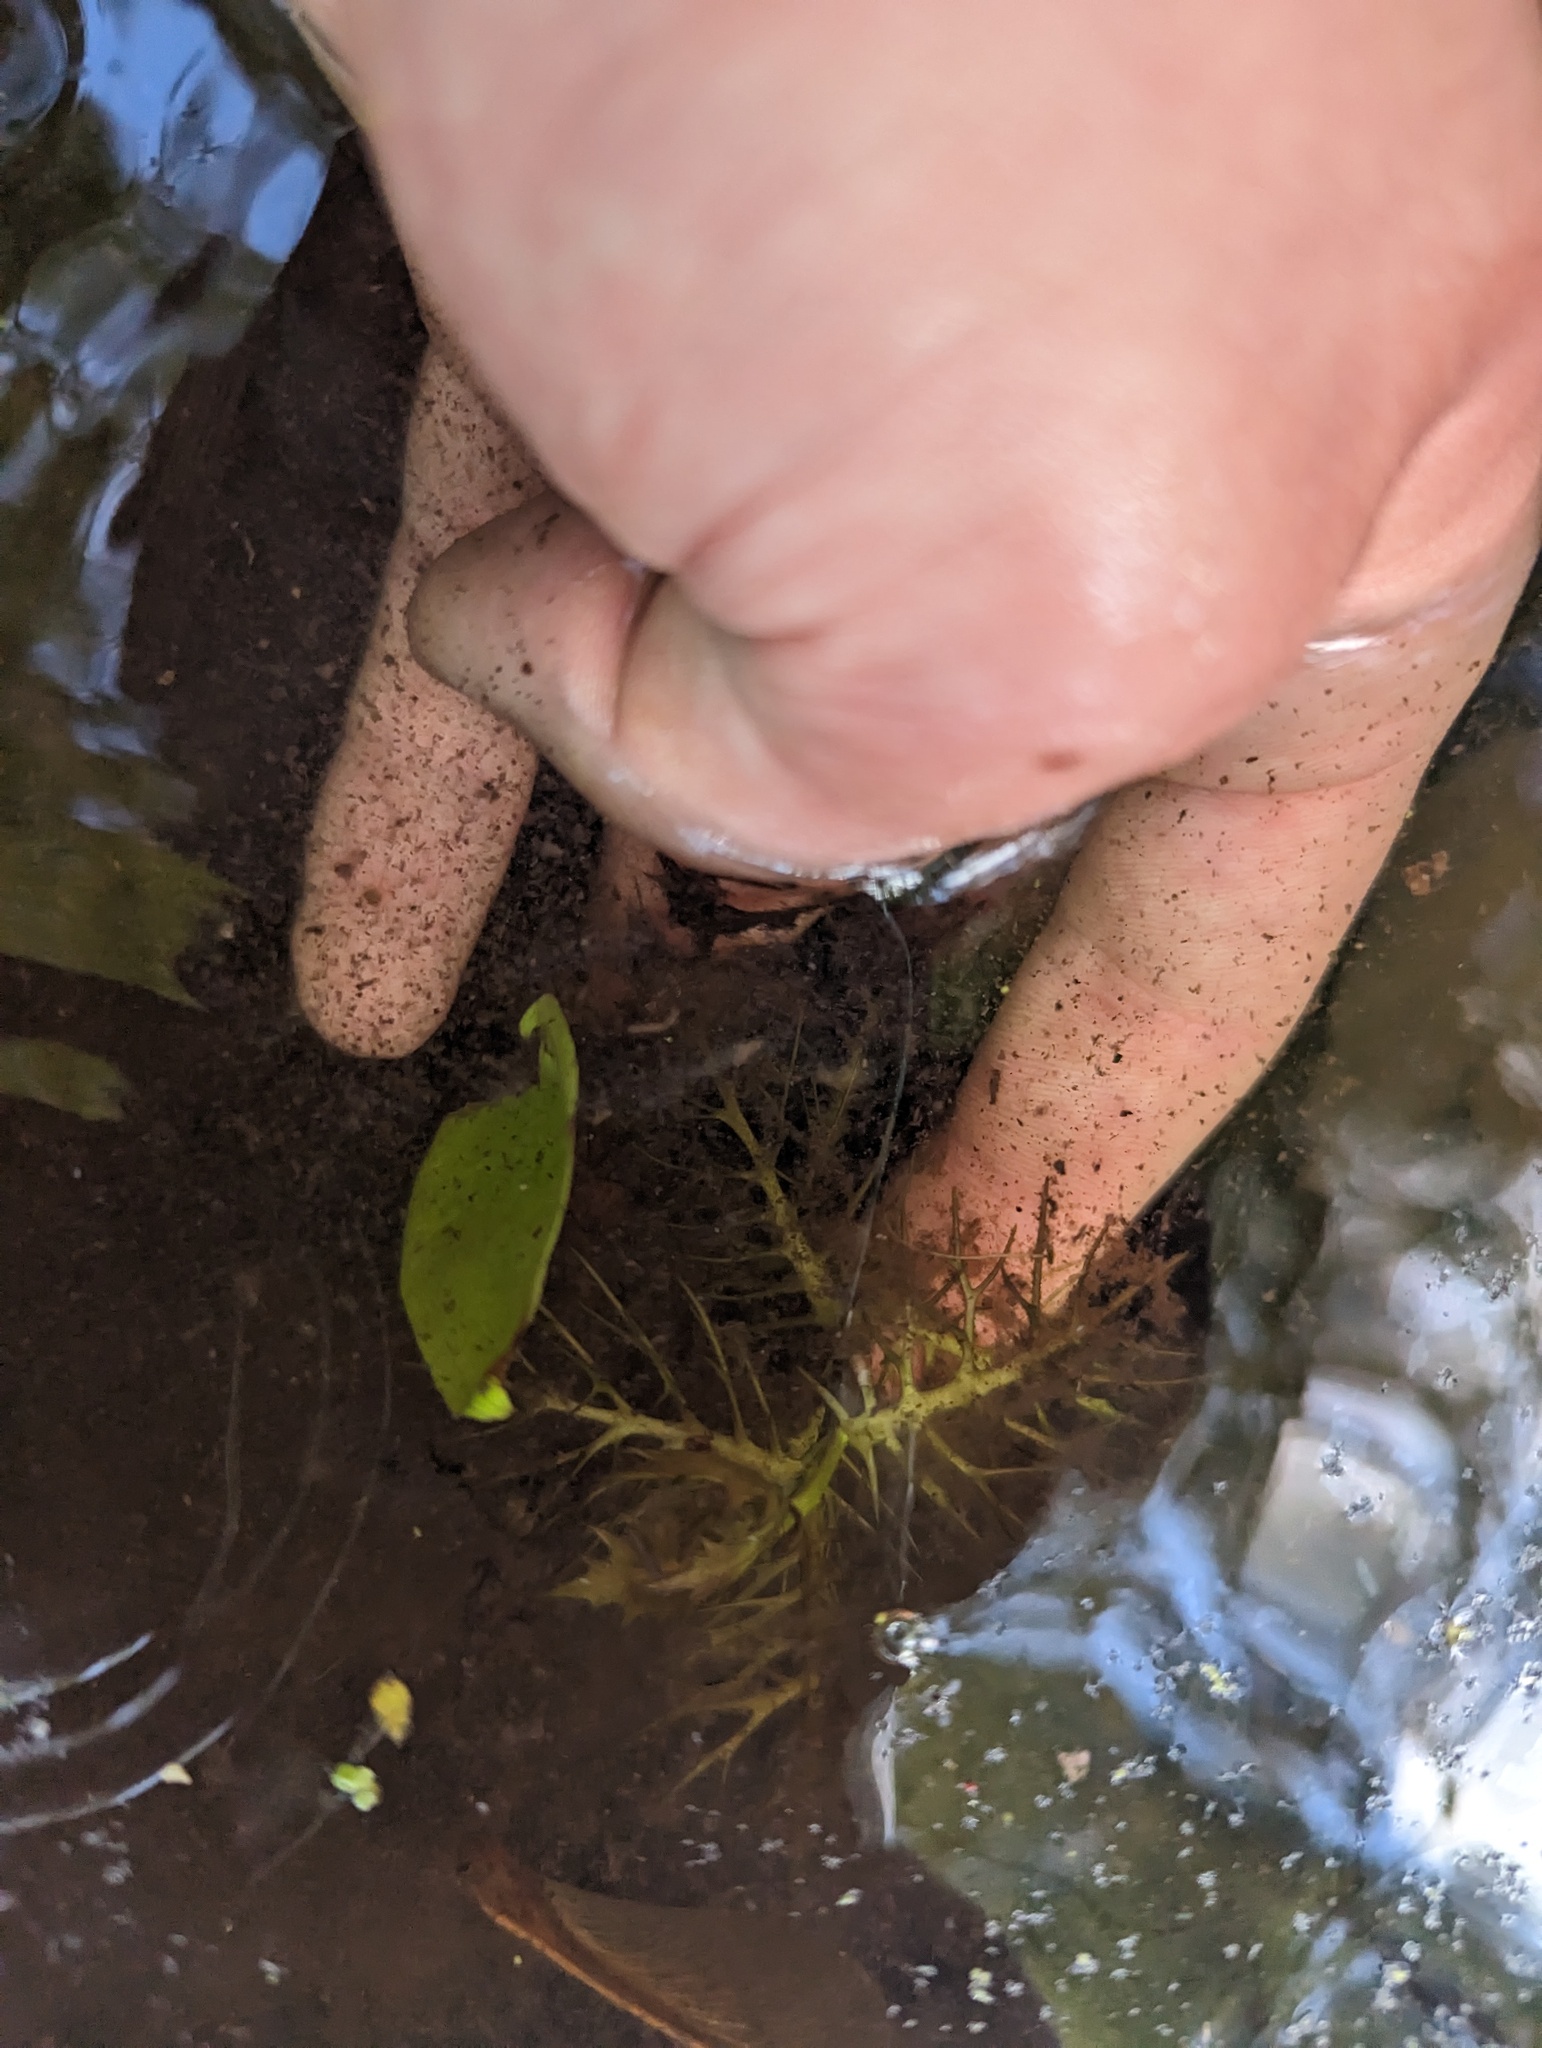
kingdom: Plantae
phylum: Tracheophyta
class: Magnoliopsida
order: Brassicales
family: Brassicaceae
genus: Rorippa
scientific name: Rorippa aquatica
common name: Lake watercress
